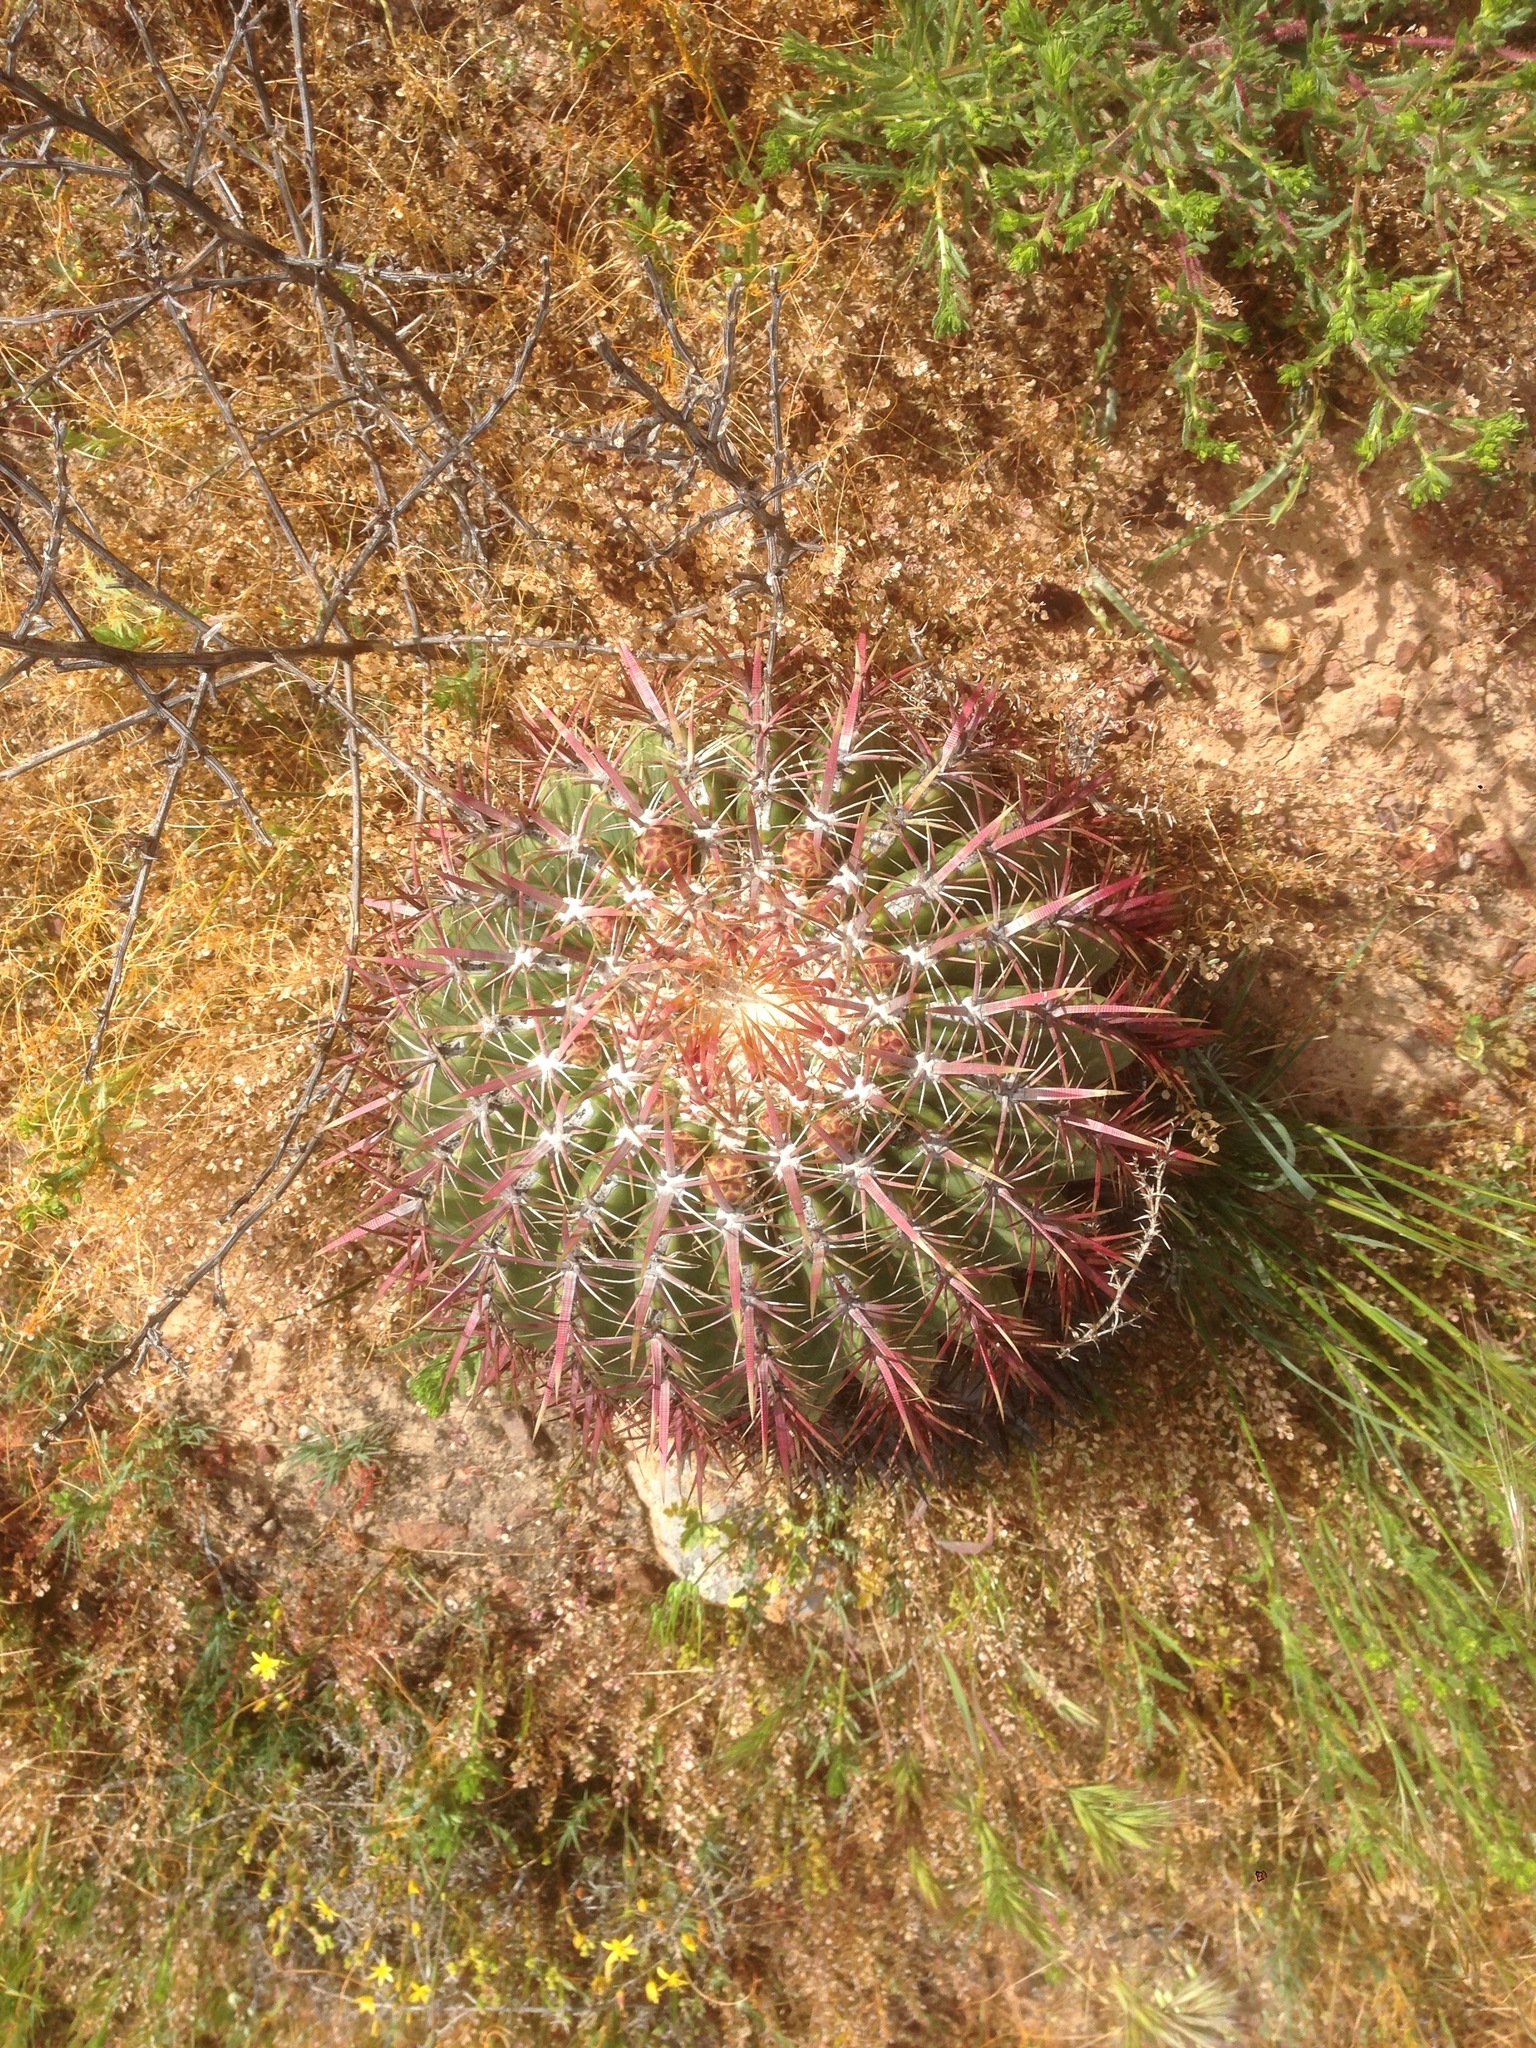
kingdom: Plantae
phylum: Tracheophyta
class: Magnoliopsida
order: Caryophyllales
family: Cactaceae
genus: Ferocactus
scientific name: Ferocactus viridescens
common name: San diego barrel cactus
